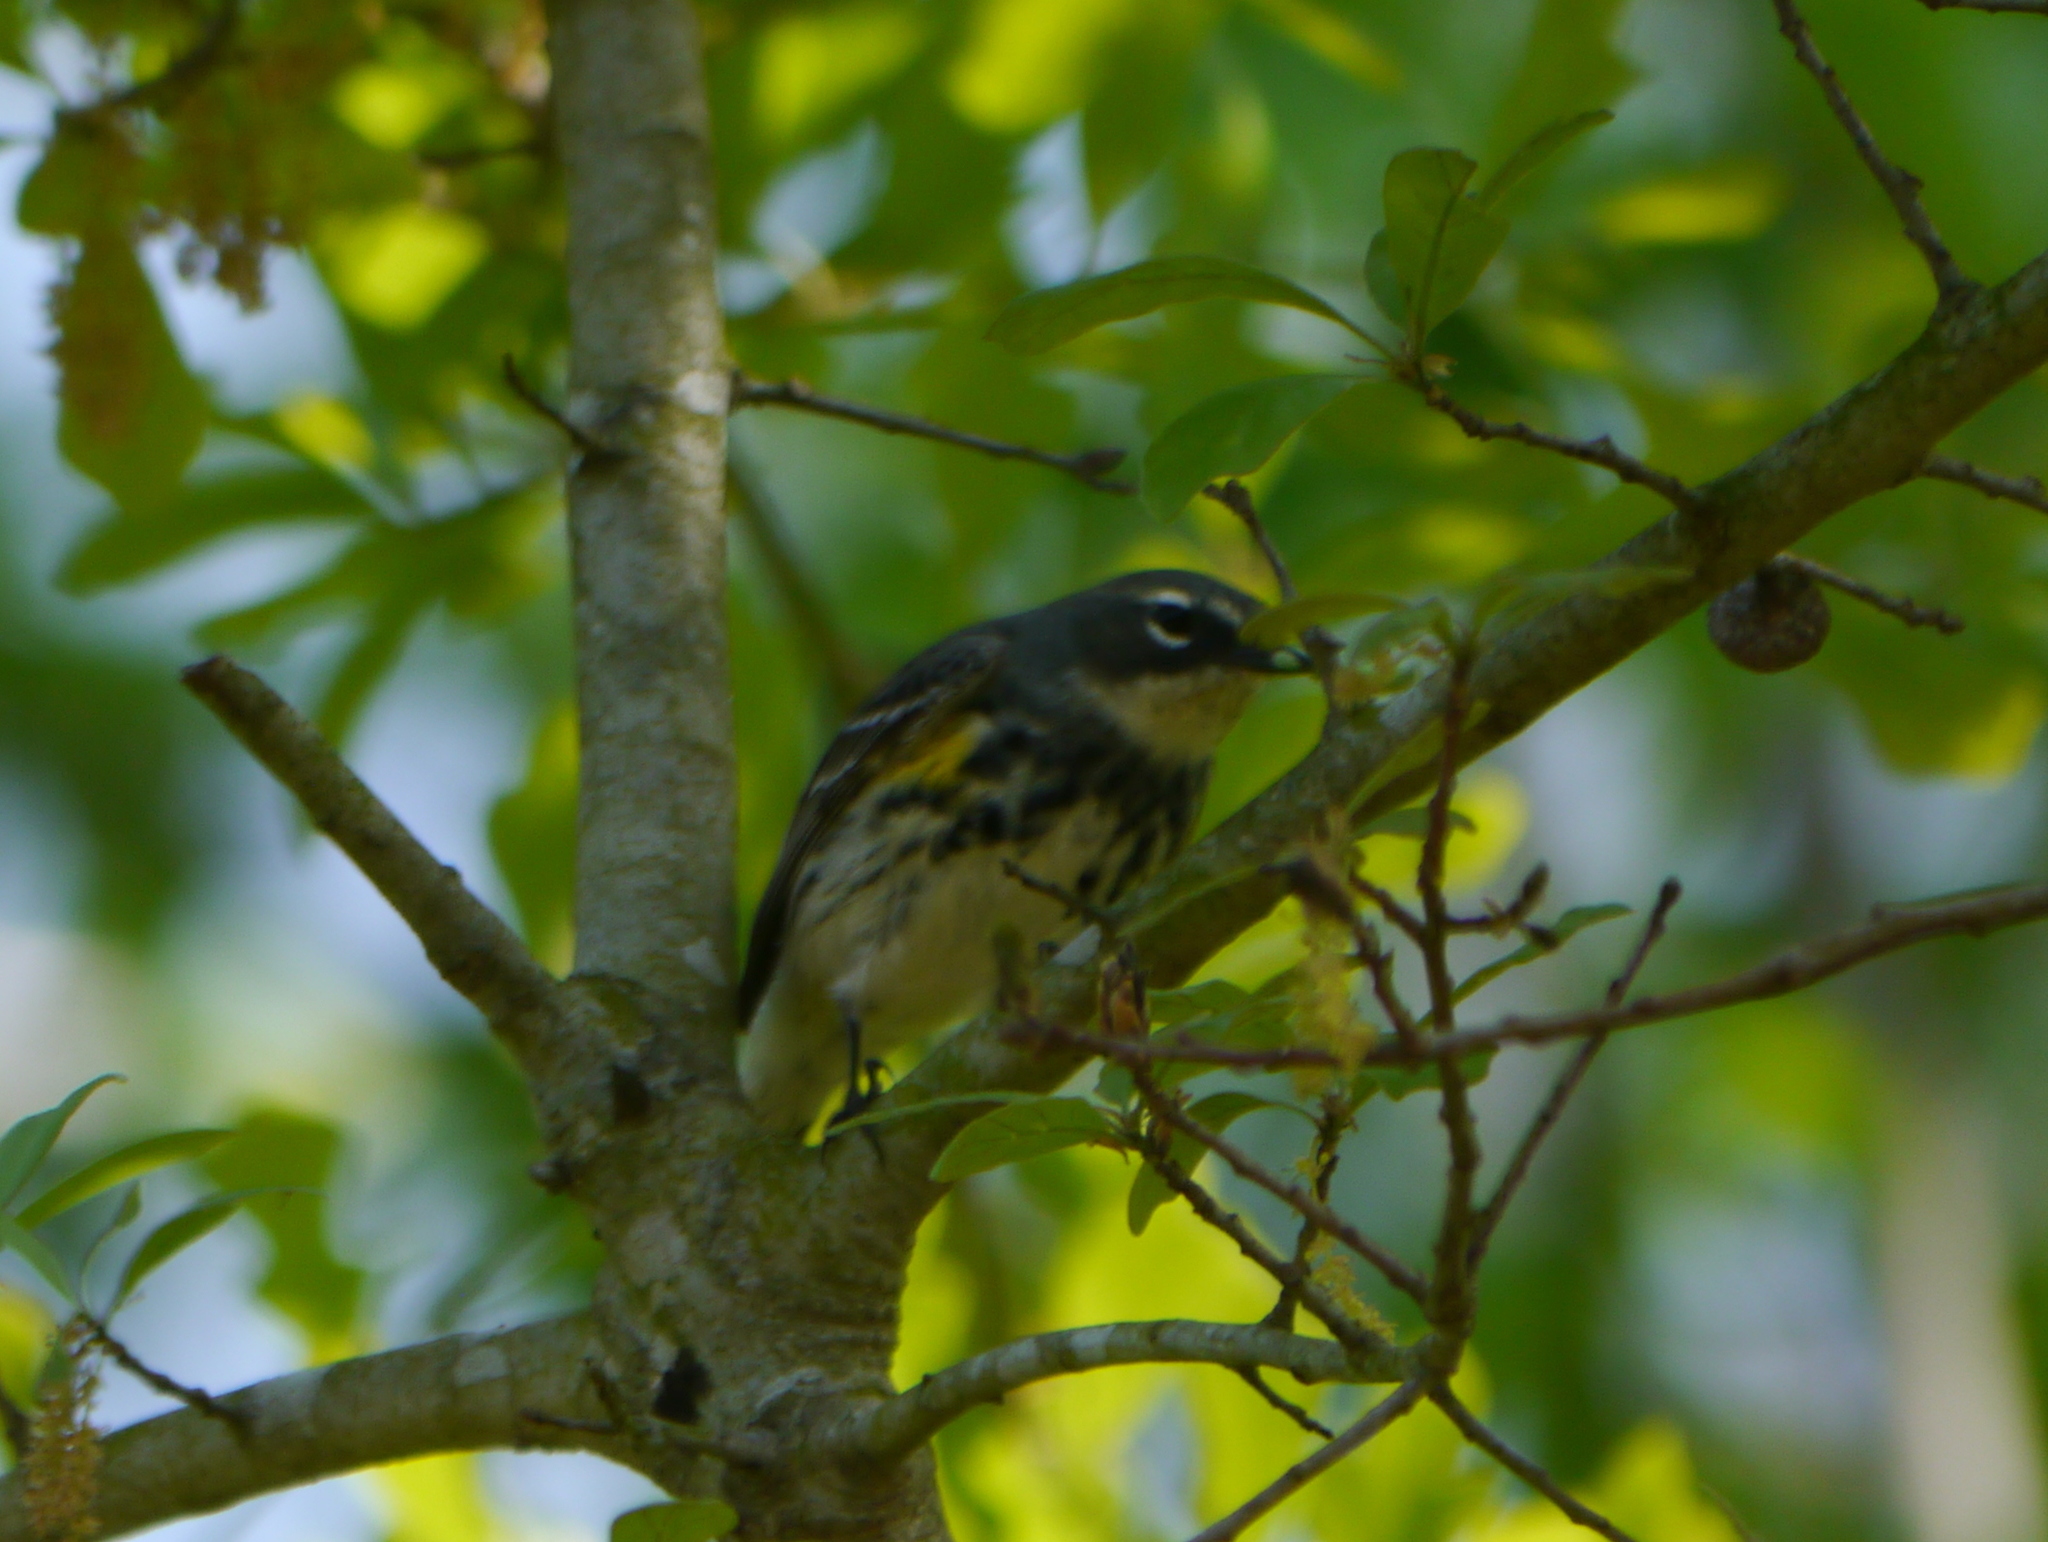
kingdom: Animalia
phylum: Chordata
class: Aves
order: Passeriformes
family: Parulidae
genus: Setophaga
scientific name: Setophaga coronata
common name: Myrtle warbler
